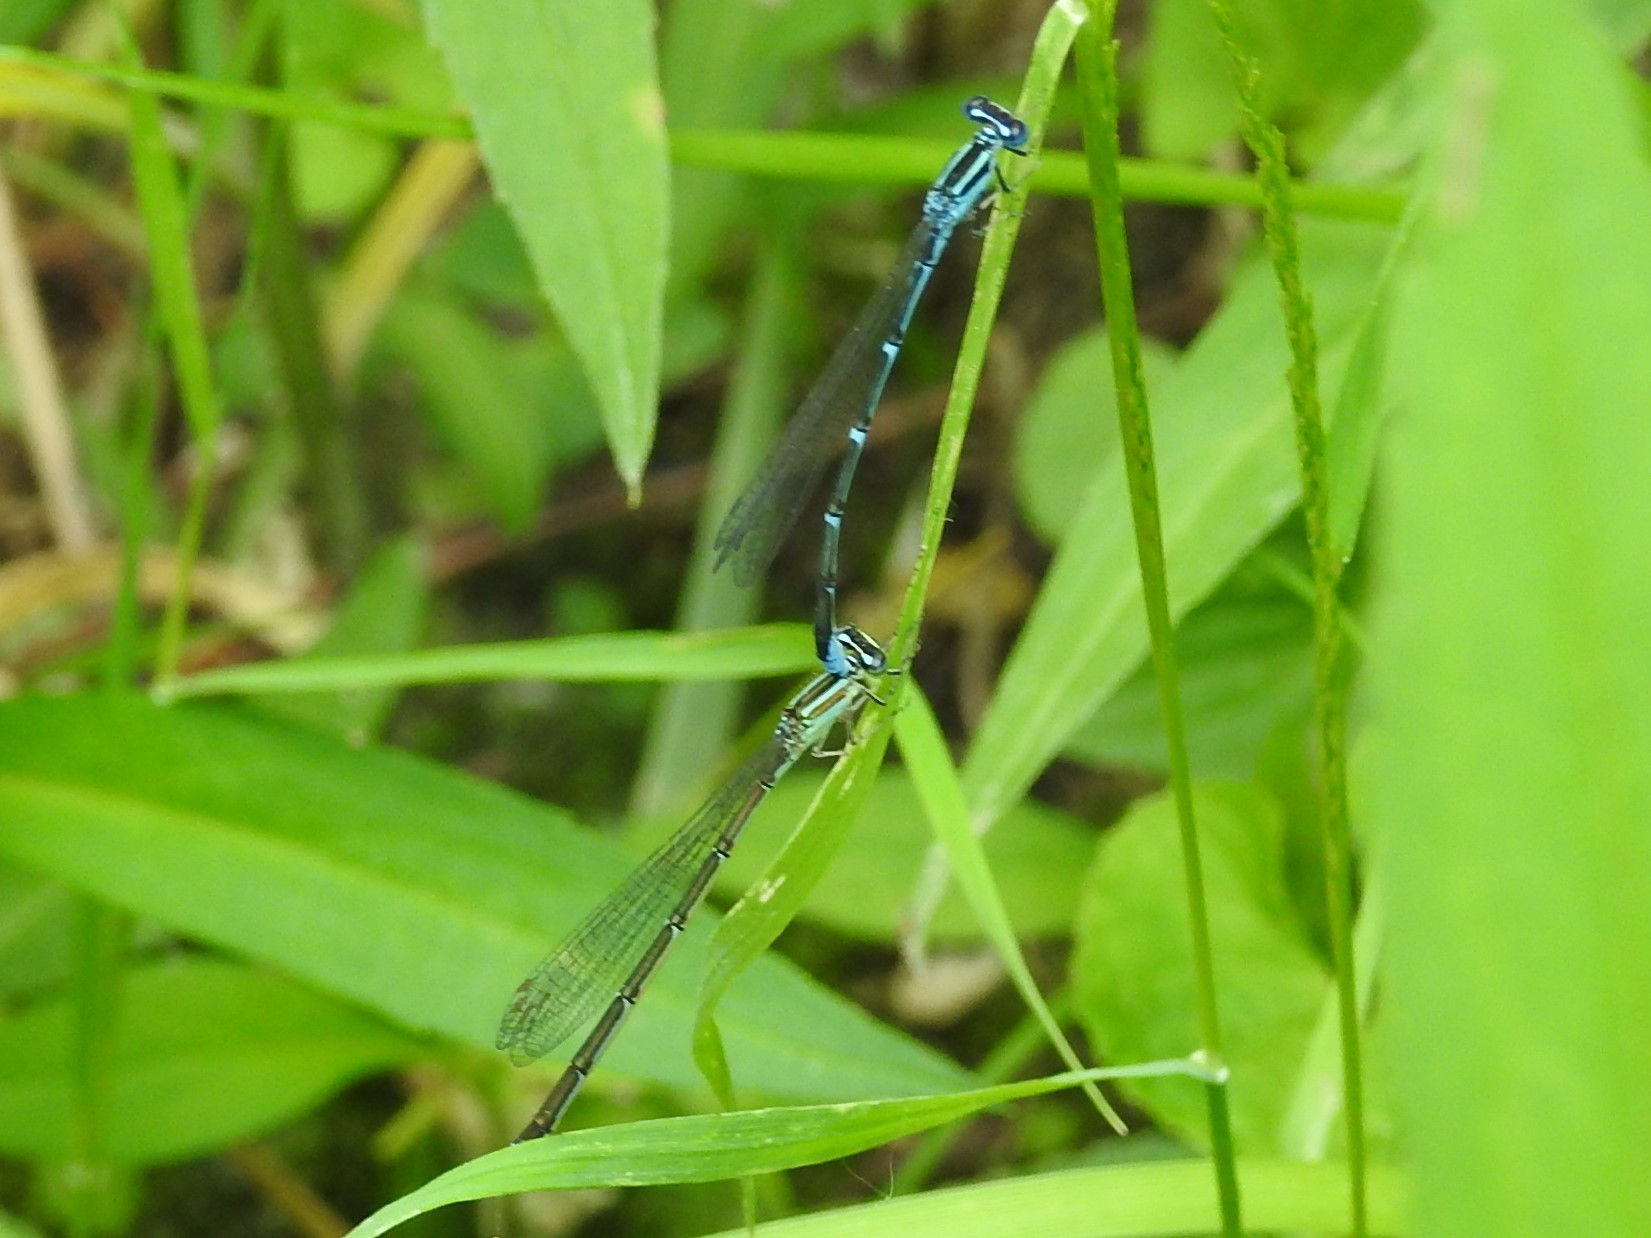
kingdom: Animalia
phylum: Arthropoda
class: Insecta
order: Odonata
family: Coenagrionidae
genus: Enallagma
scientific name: Enallagma exsulans
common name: Stream bluet
